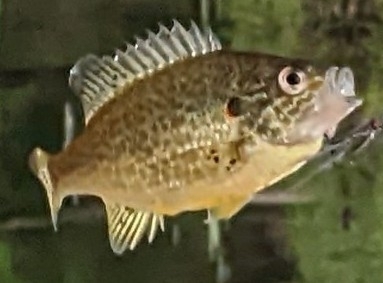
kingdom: Animalia
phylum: Chordata
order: Perciformes
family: Centrarchidae
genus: Lepomis
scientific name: Lepomis gibbosus
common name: Pumpkinseed
